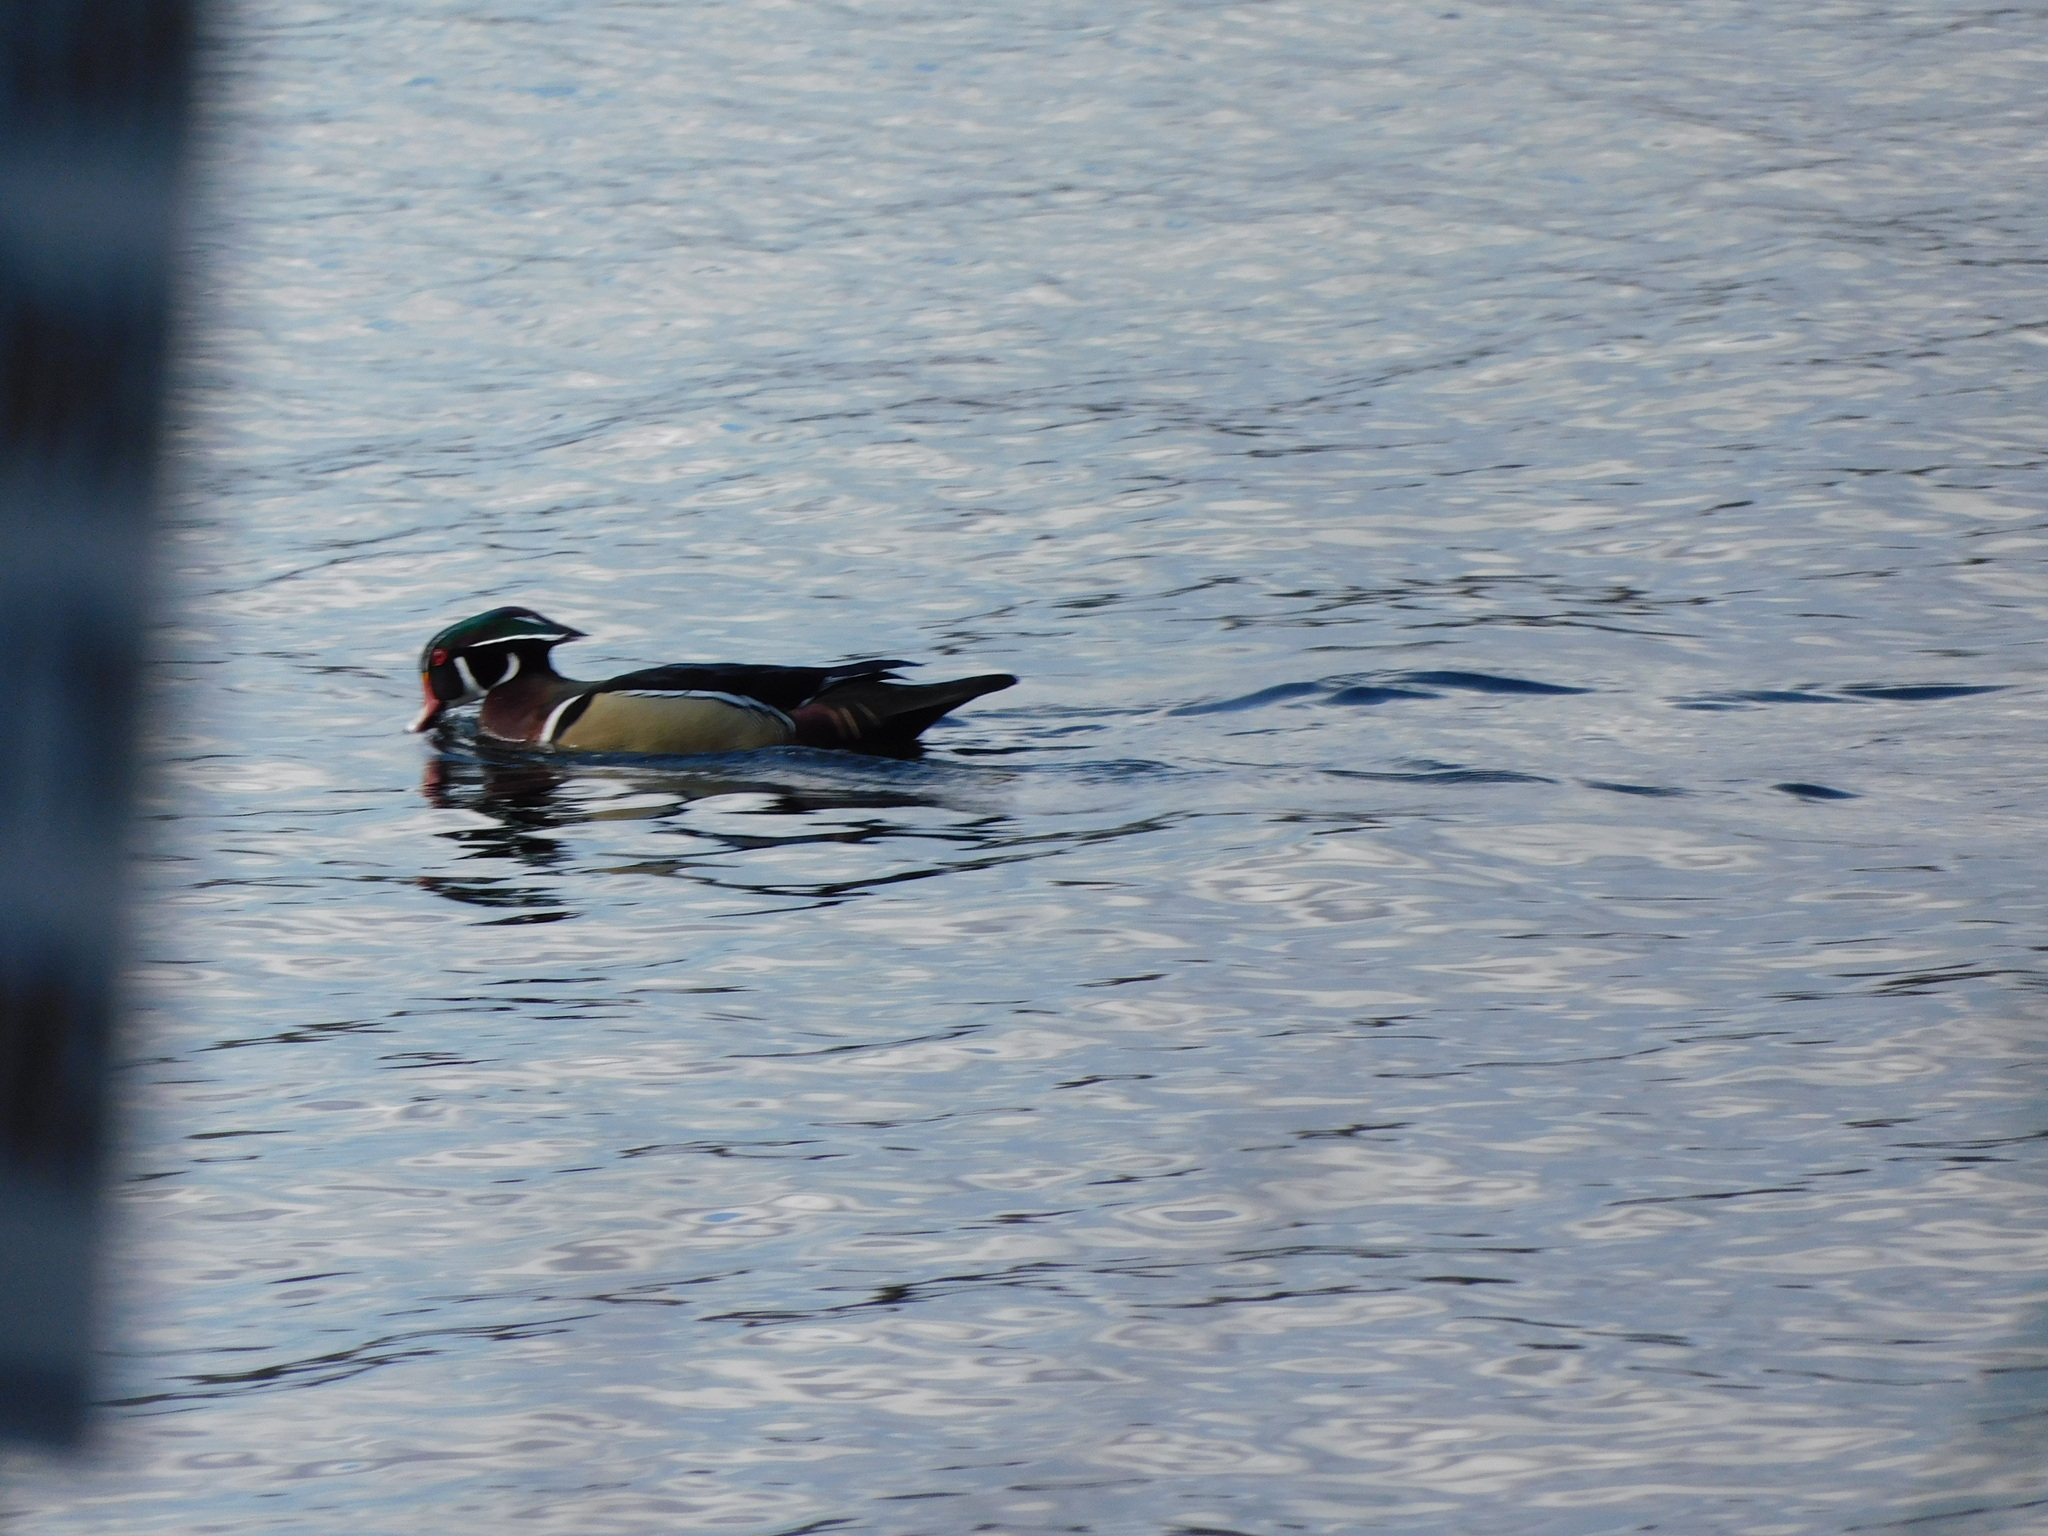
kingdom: Animalia
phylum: Chordata
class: Aves
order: Anseriformes
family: Anatidae
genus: Aix
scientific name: Aix sponsa
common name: Wood duck
